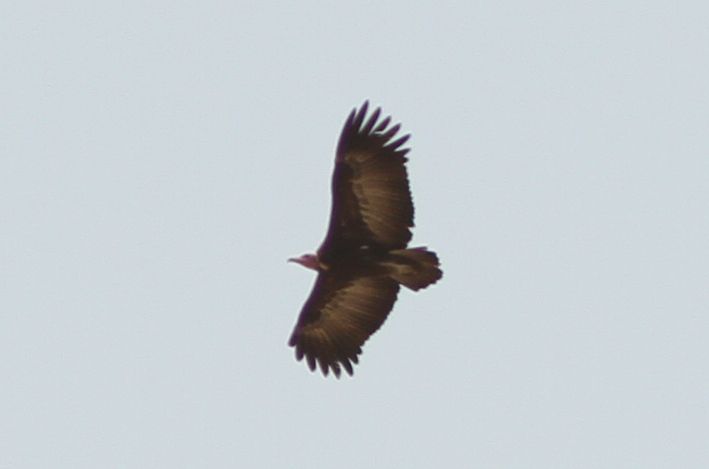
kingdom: Animalia
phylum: Chordata
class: Aves
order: Accipitriformes
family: Accipitridae
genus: Necrosyrtes
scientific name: Necrosyrtes monachus
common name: Hooded vulture
